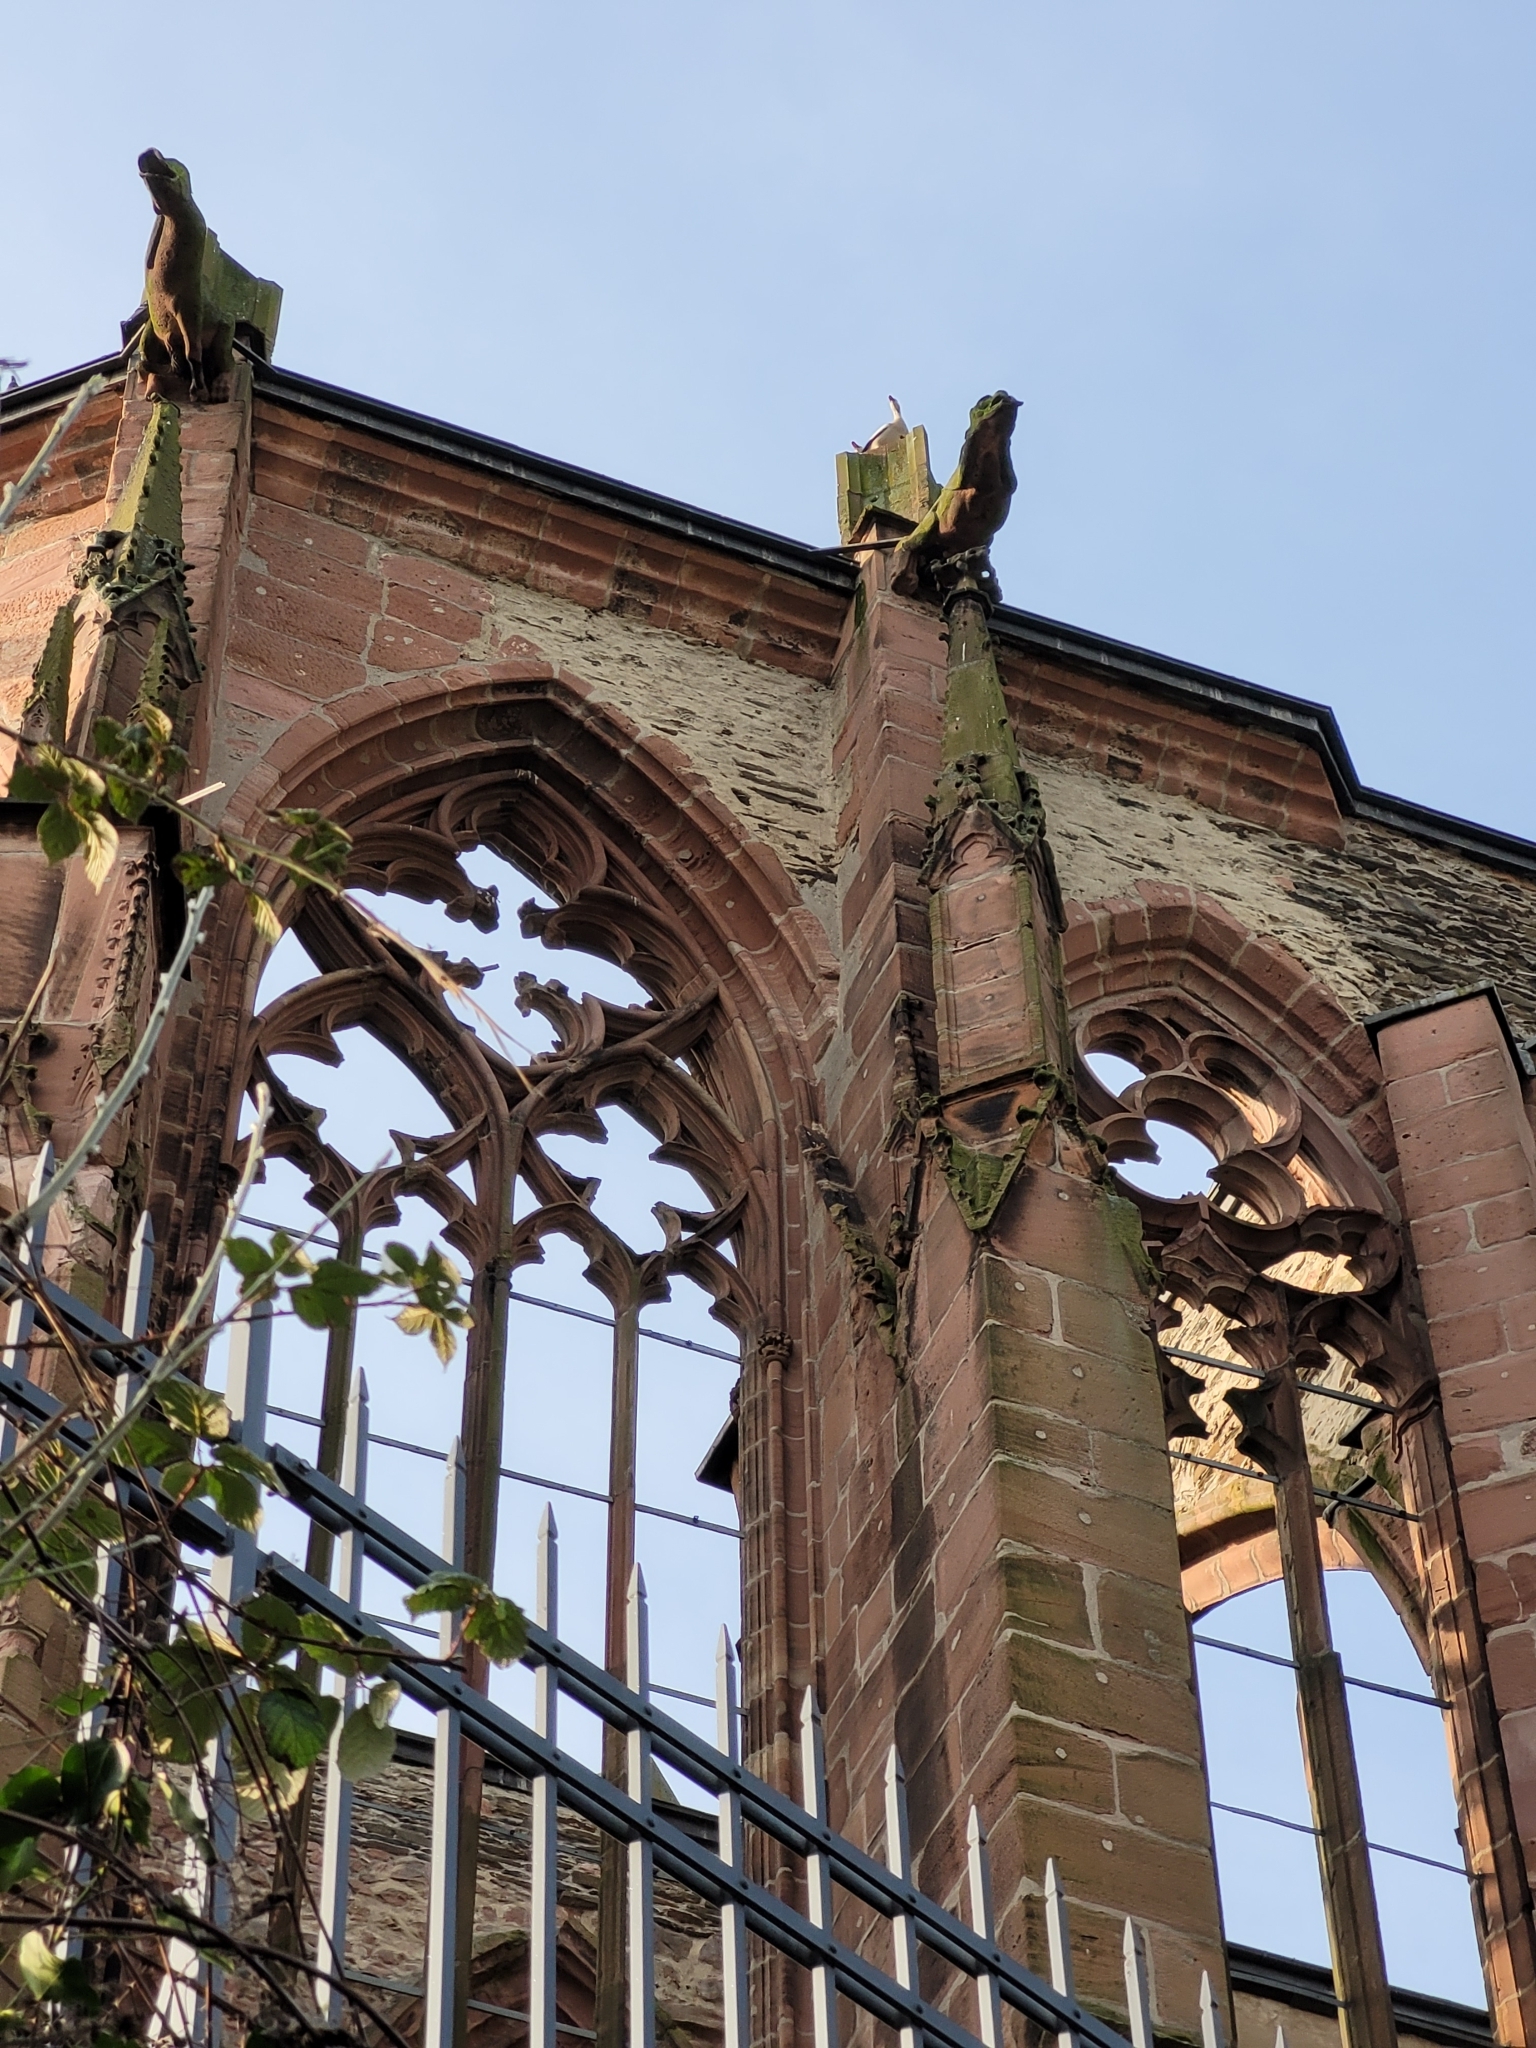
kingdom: Animalia
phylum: Chordata
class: Aves
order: Anseriformes
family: Anatidae
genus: Alopochen
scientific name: Alopochen aegyptiaca
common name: Egyptian goose
